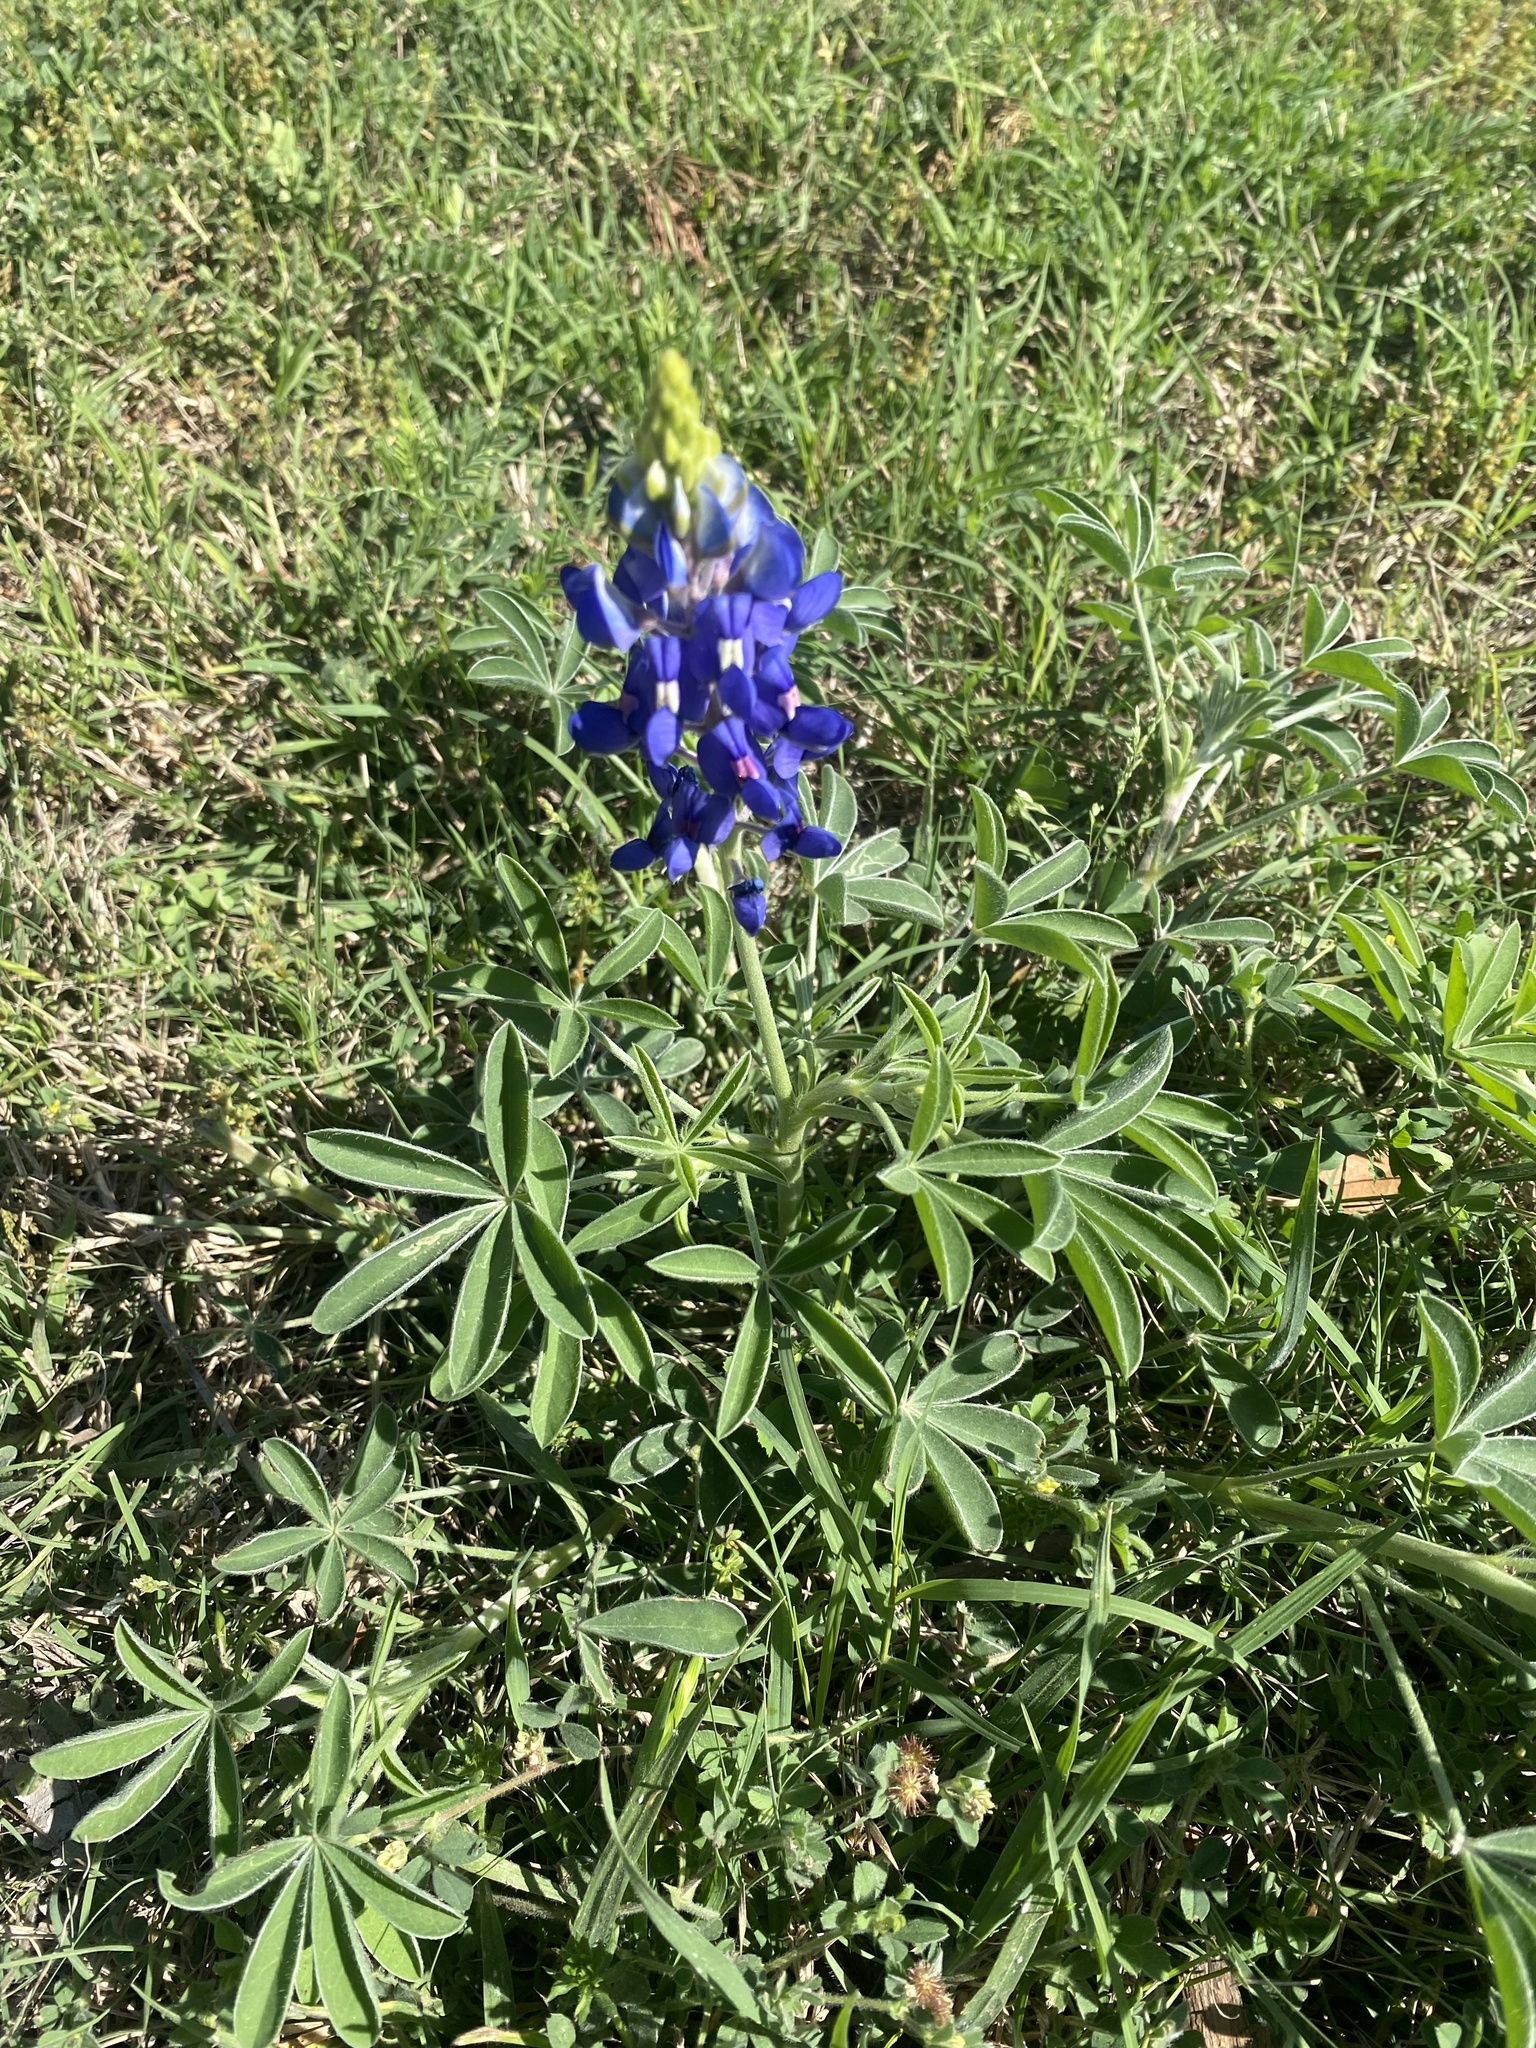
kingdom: Plantae
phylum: Tracheophyta
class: Magnoliopsida
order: Fabales
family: Fabaceae
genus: Lupinus
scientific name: Lupinus texensis
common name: Texas bluebonnet
